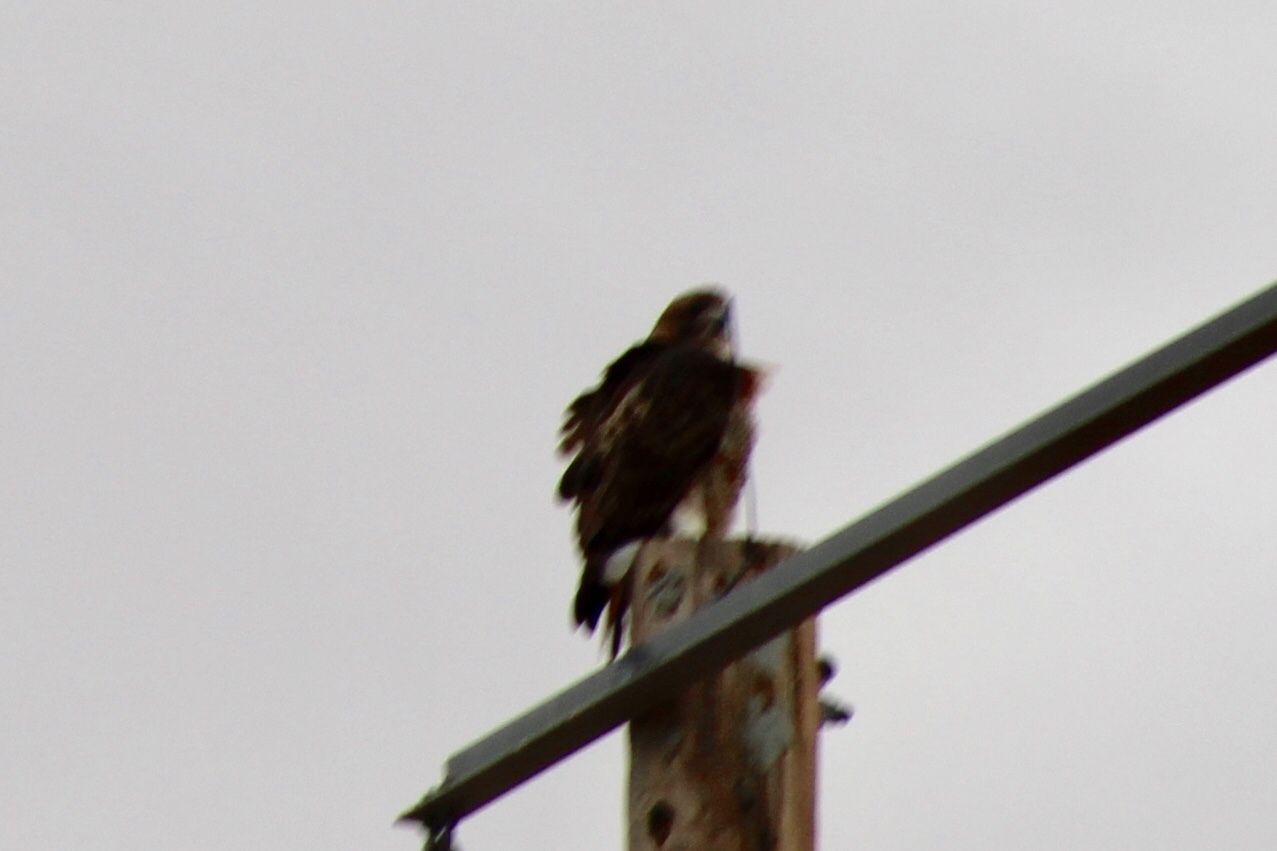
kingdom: Animalia
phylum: Chordata
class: Aves
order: Accipitriformes
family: Accipitridae
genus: Buteo
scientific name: Buteo jamaicensis
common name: Red-tailed hawk
